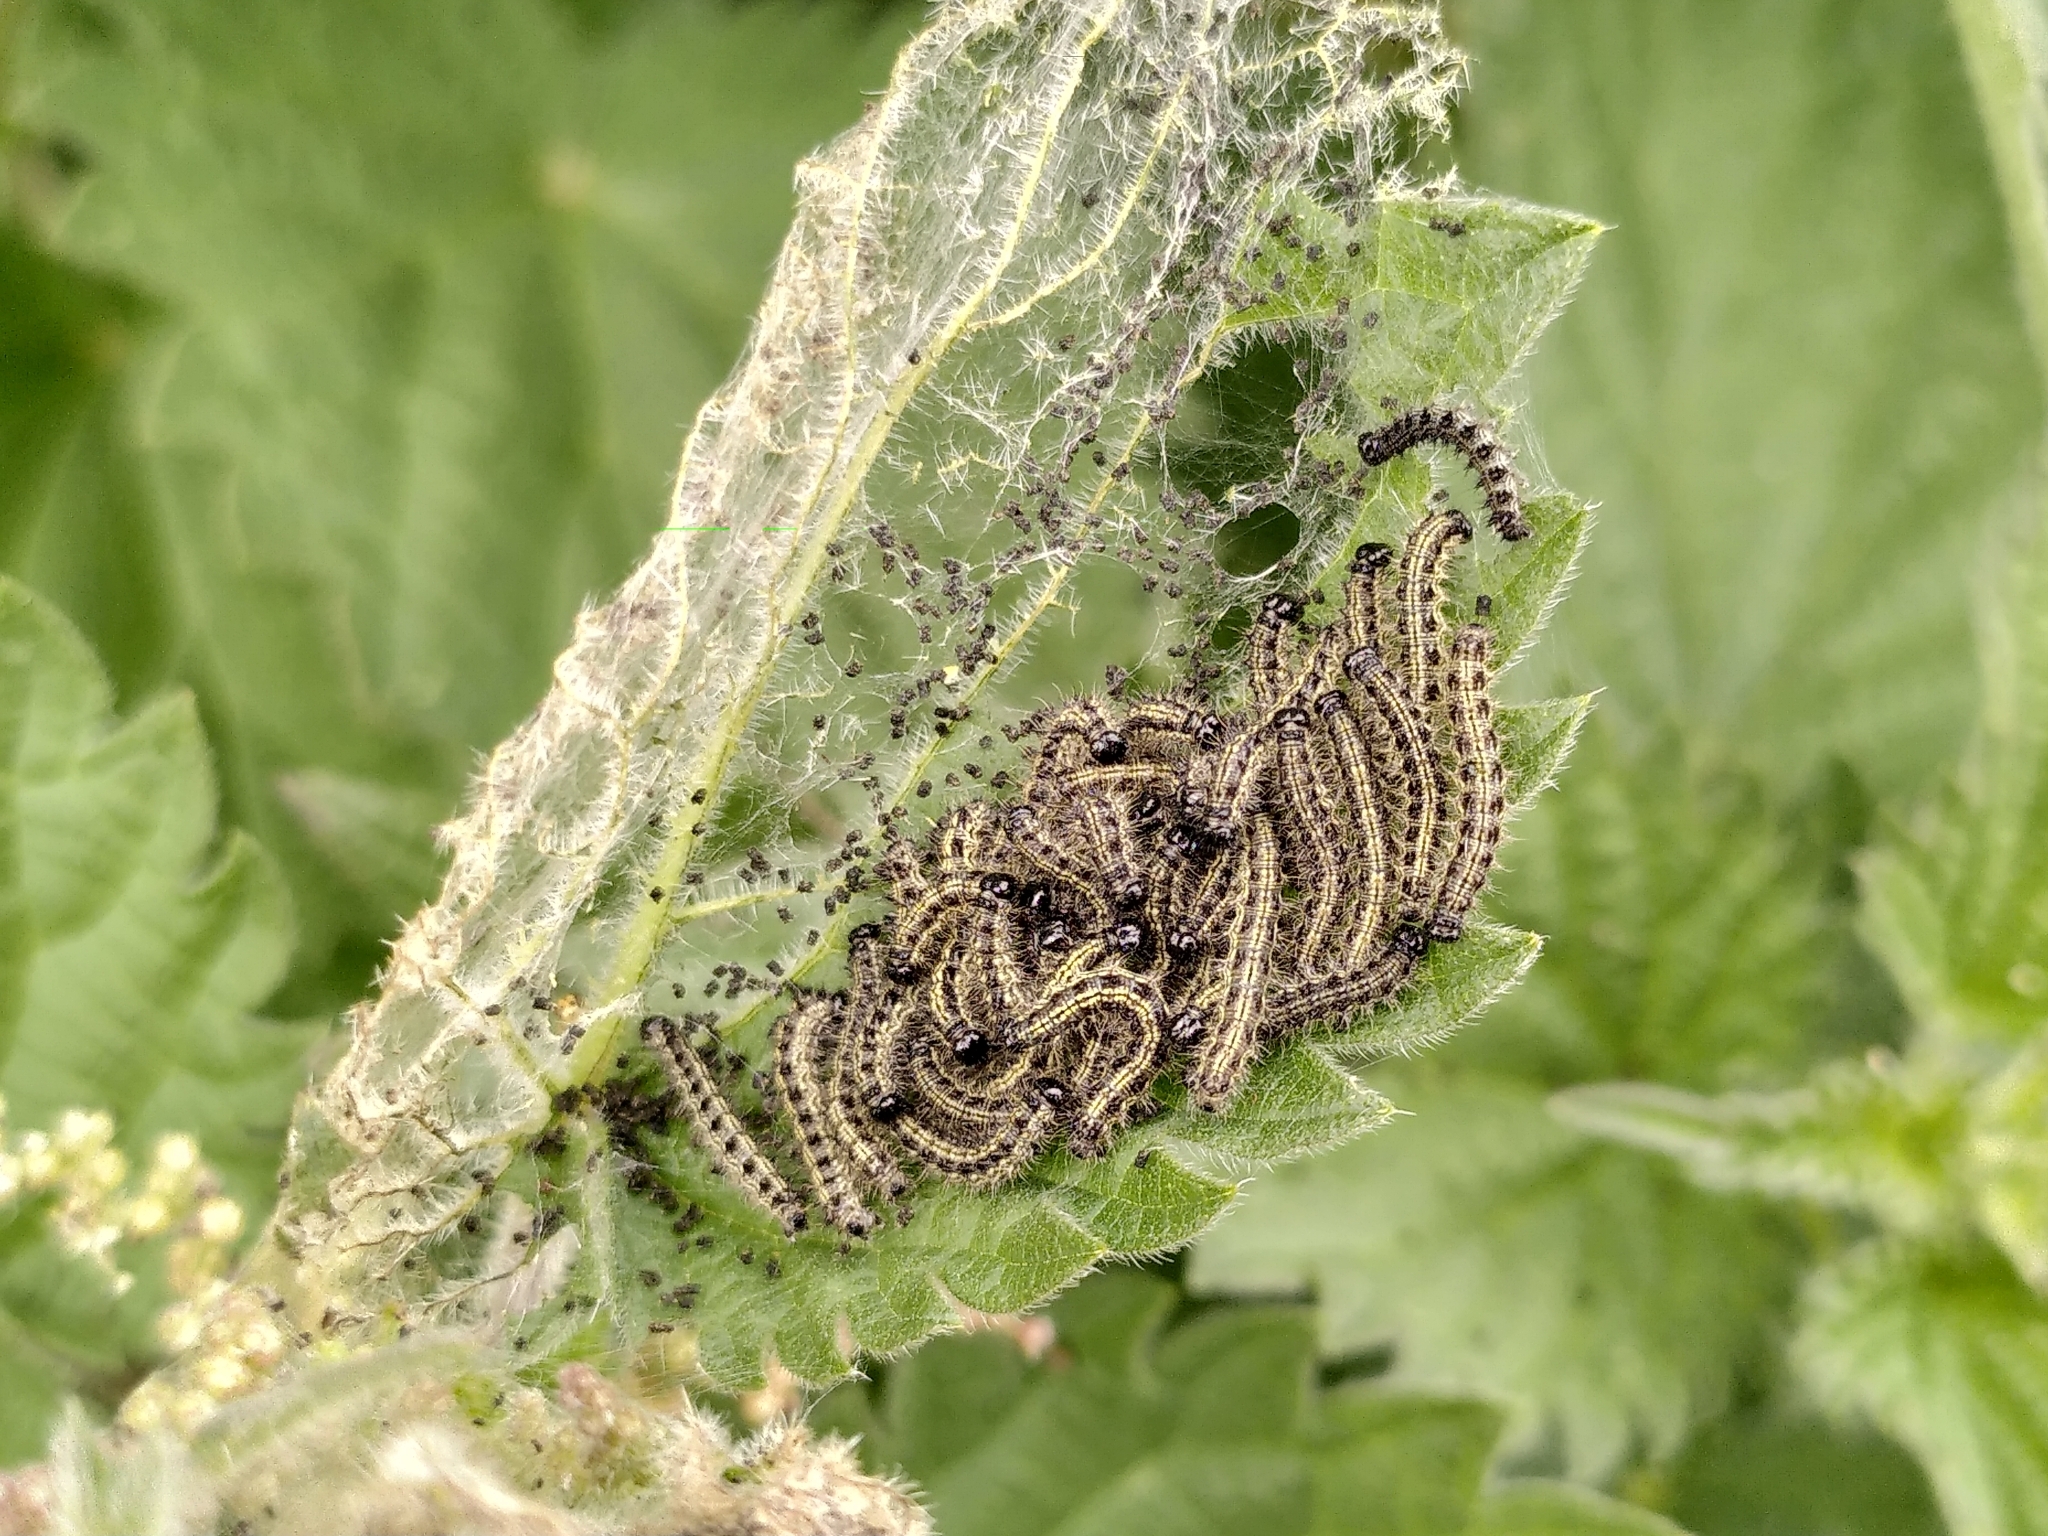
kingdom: Animalia
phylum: Arthropoda
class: Insecta
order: Lepidoptera
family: Nymphalidae
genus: Aglais
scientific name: Aglais urticae
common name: Small tortoiseshell
